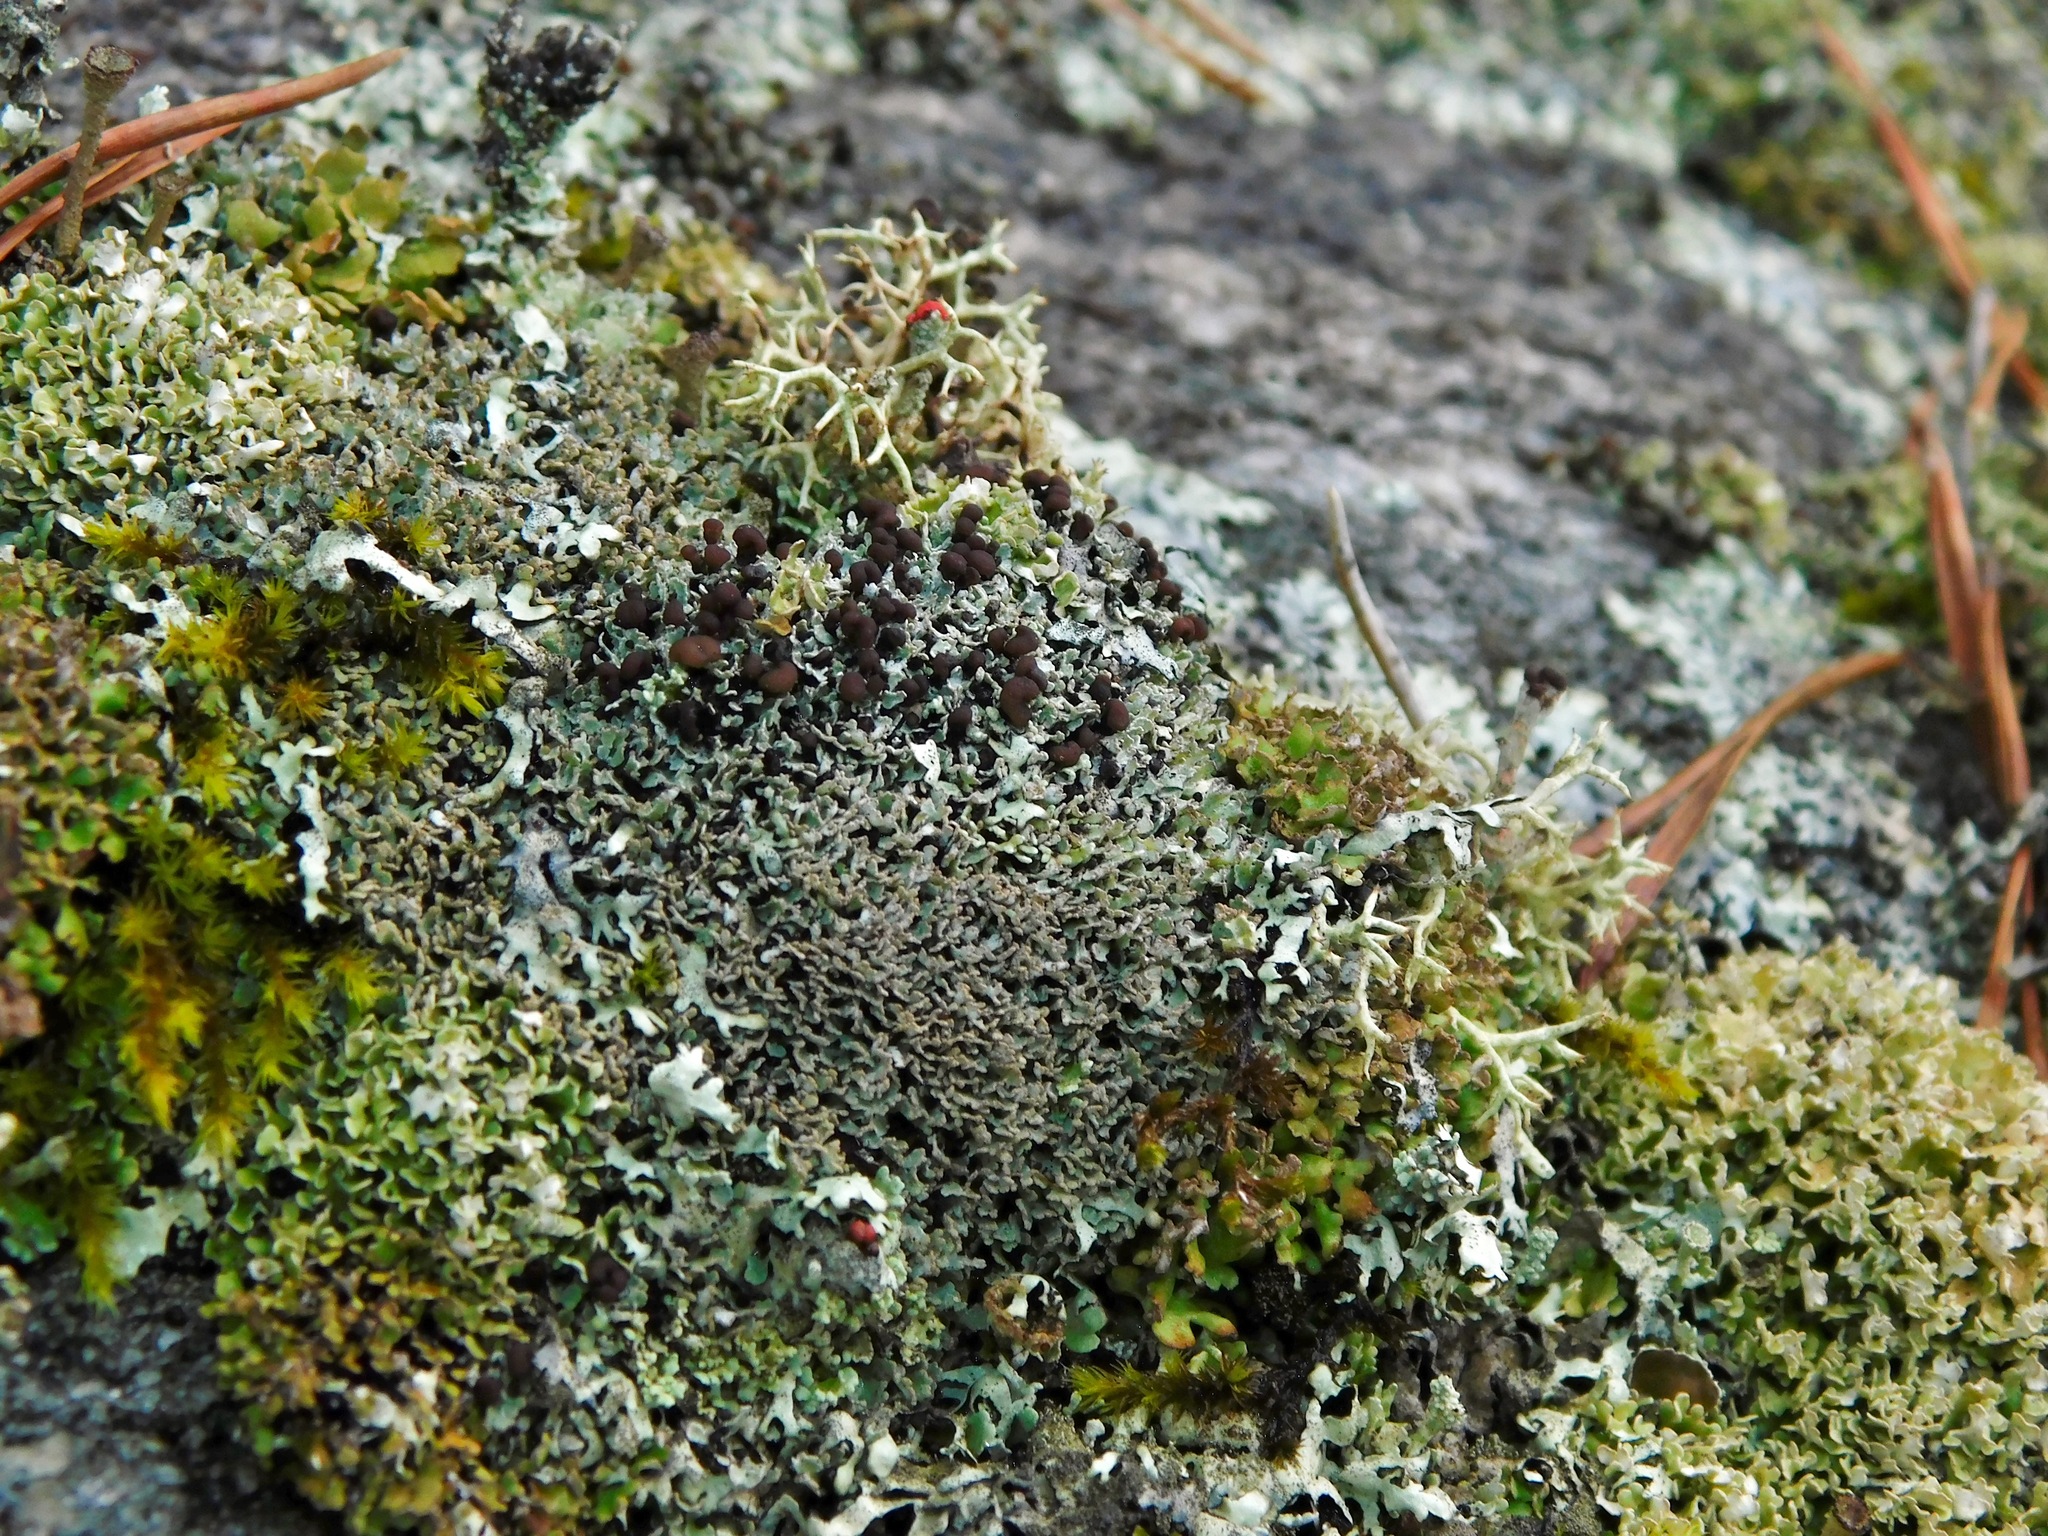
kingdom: Fungi
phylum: Ascomycota
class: Lecanoromycetes
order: Lecanorales
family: Cladoniaceae
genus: Cladonia
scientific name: Cladonia stipitata
